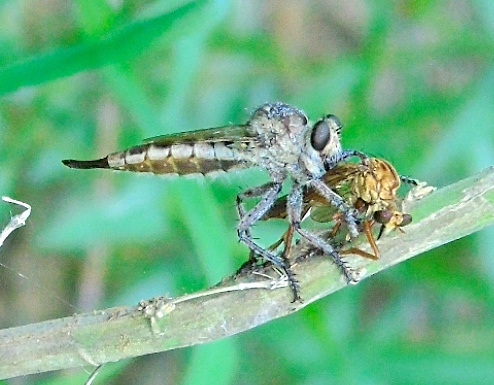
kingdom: Animalia
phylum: Arthropoda
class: Insecta
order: Diptera
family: Asilidae
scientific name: Asilidae
